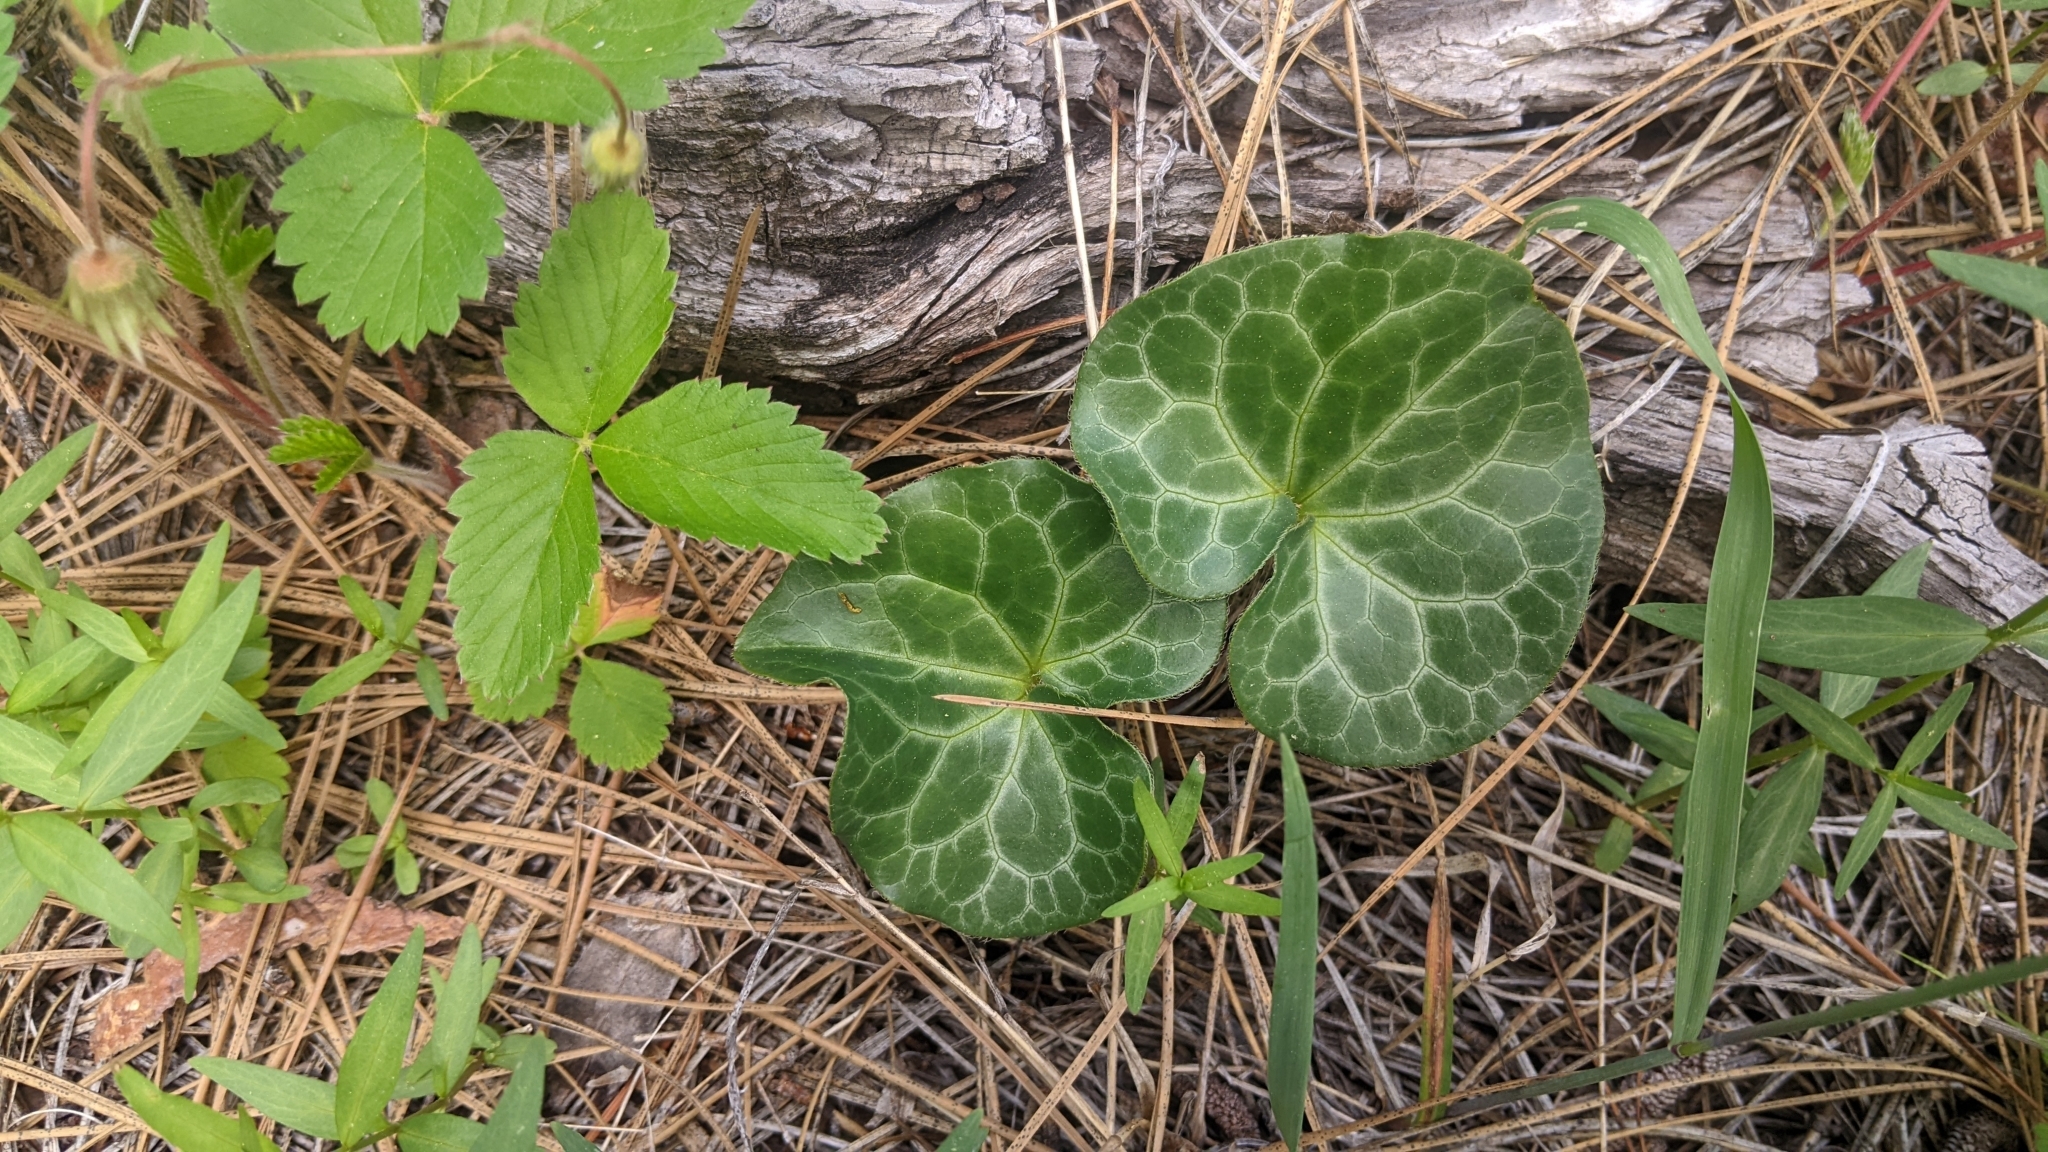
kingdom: Plantae
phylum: Tracheophyta
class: Magnoliopsida
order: Piperales
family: Aristolochiaceae
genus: Asarum
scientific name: Asarum hartwegii
